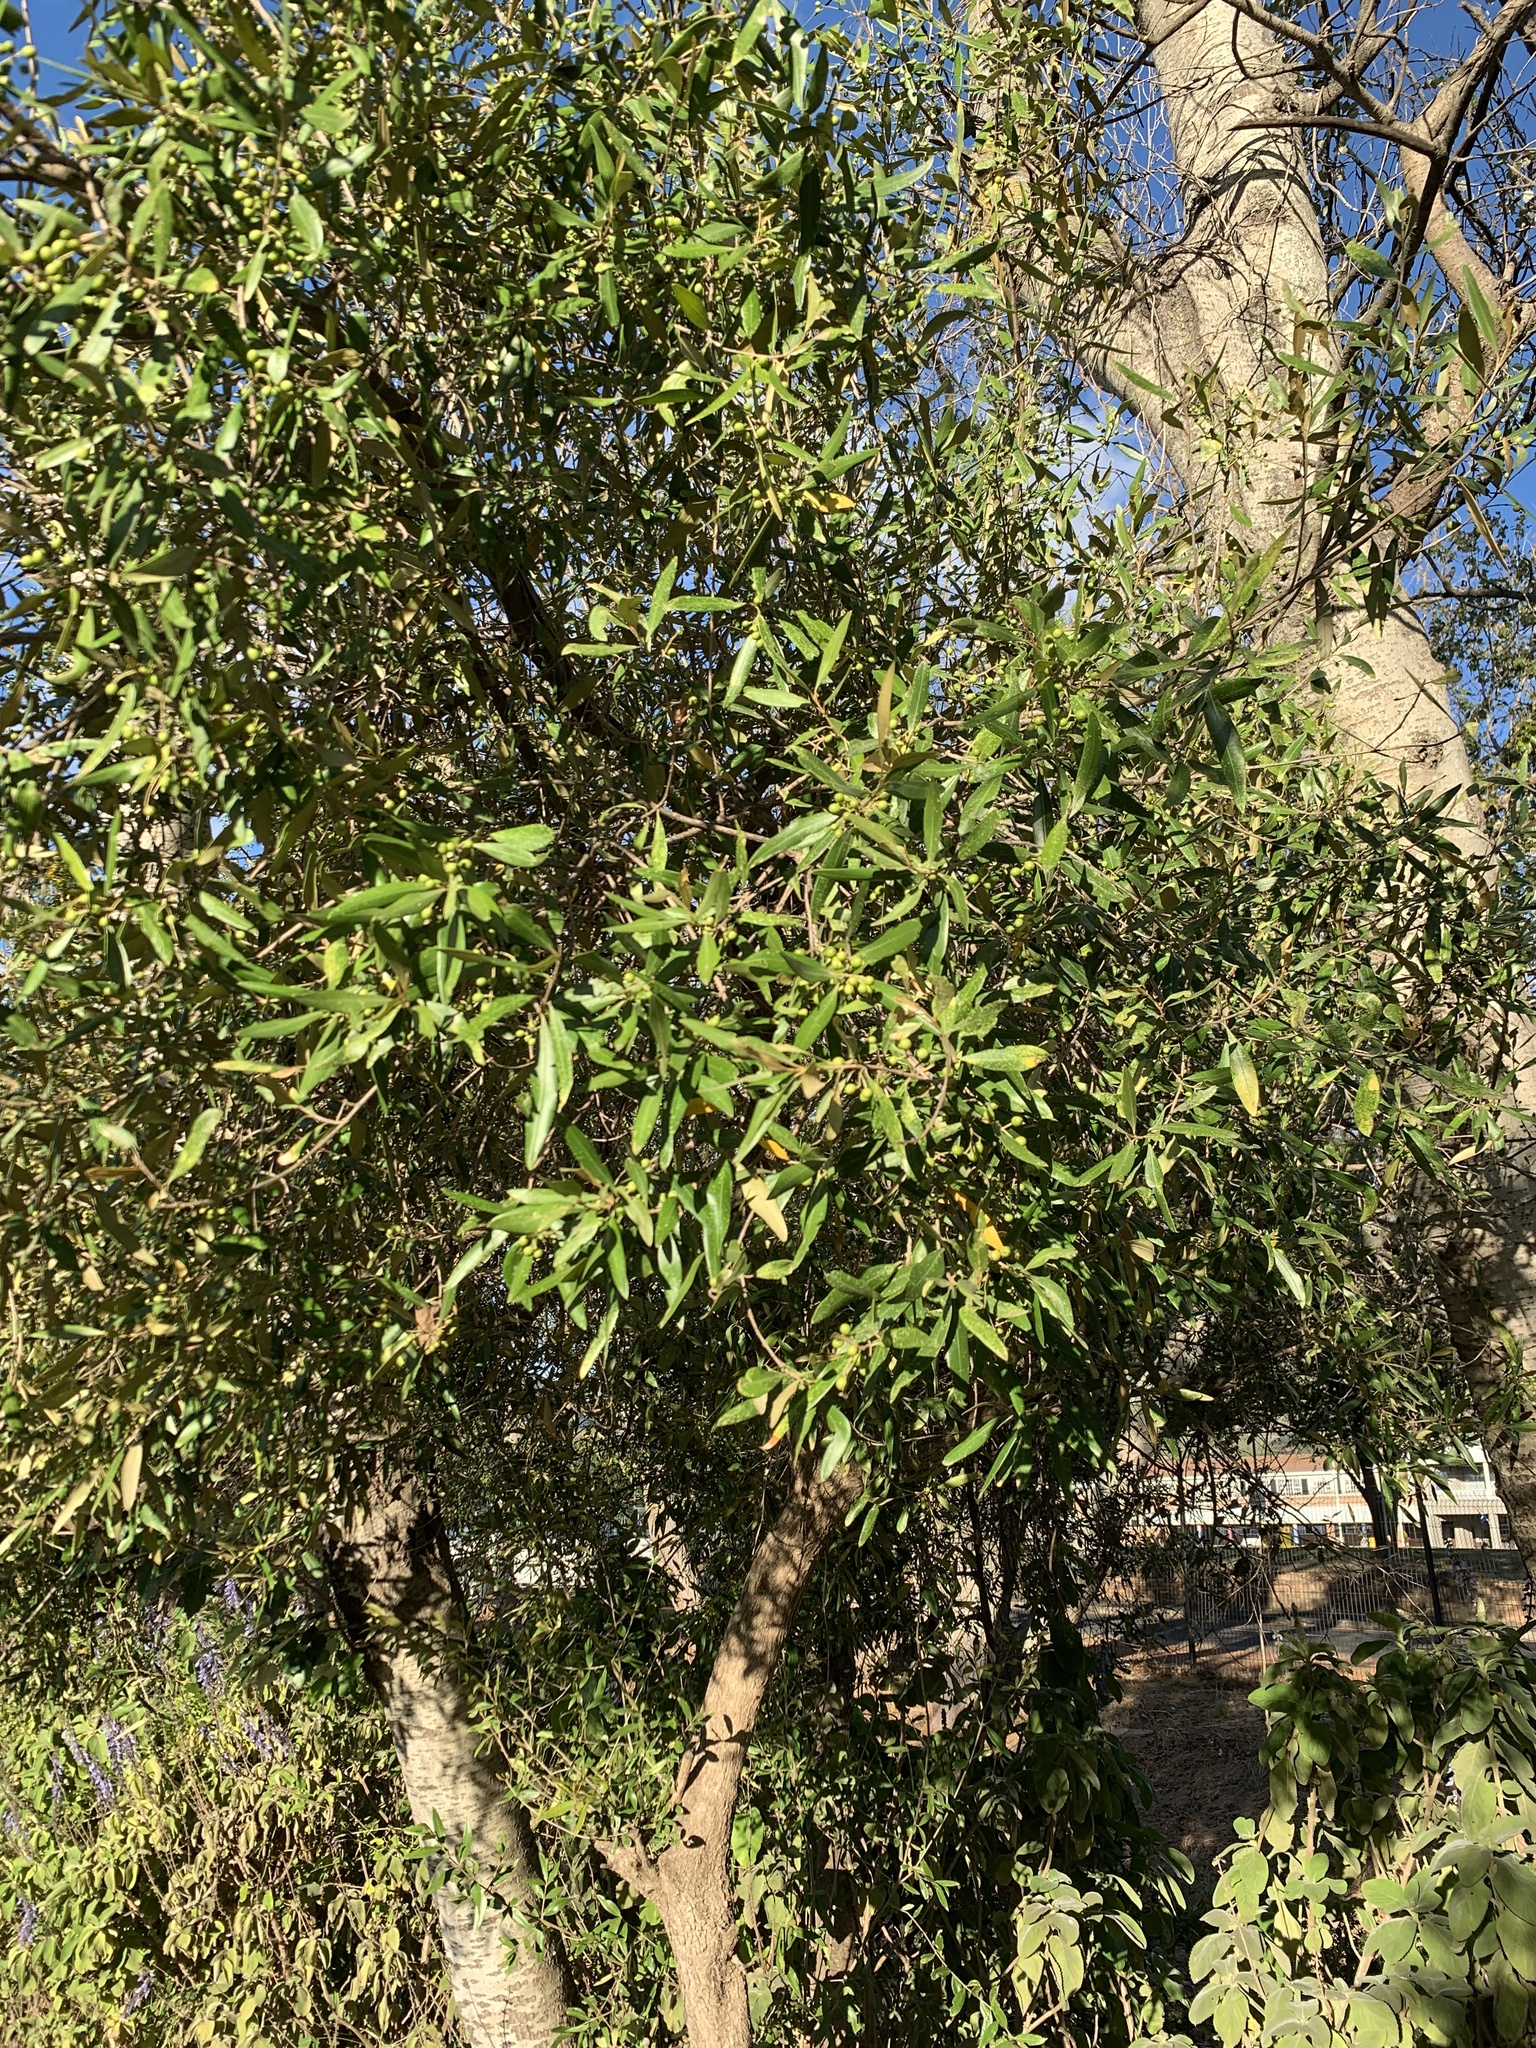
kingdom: Plantae
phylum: Tracheophyta
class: Magnoliopsida
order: Lamiales
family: Oleaceae
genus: Olea
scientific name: Olea europaea
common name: Olive
